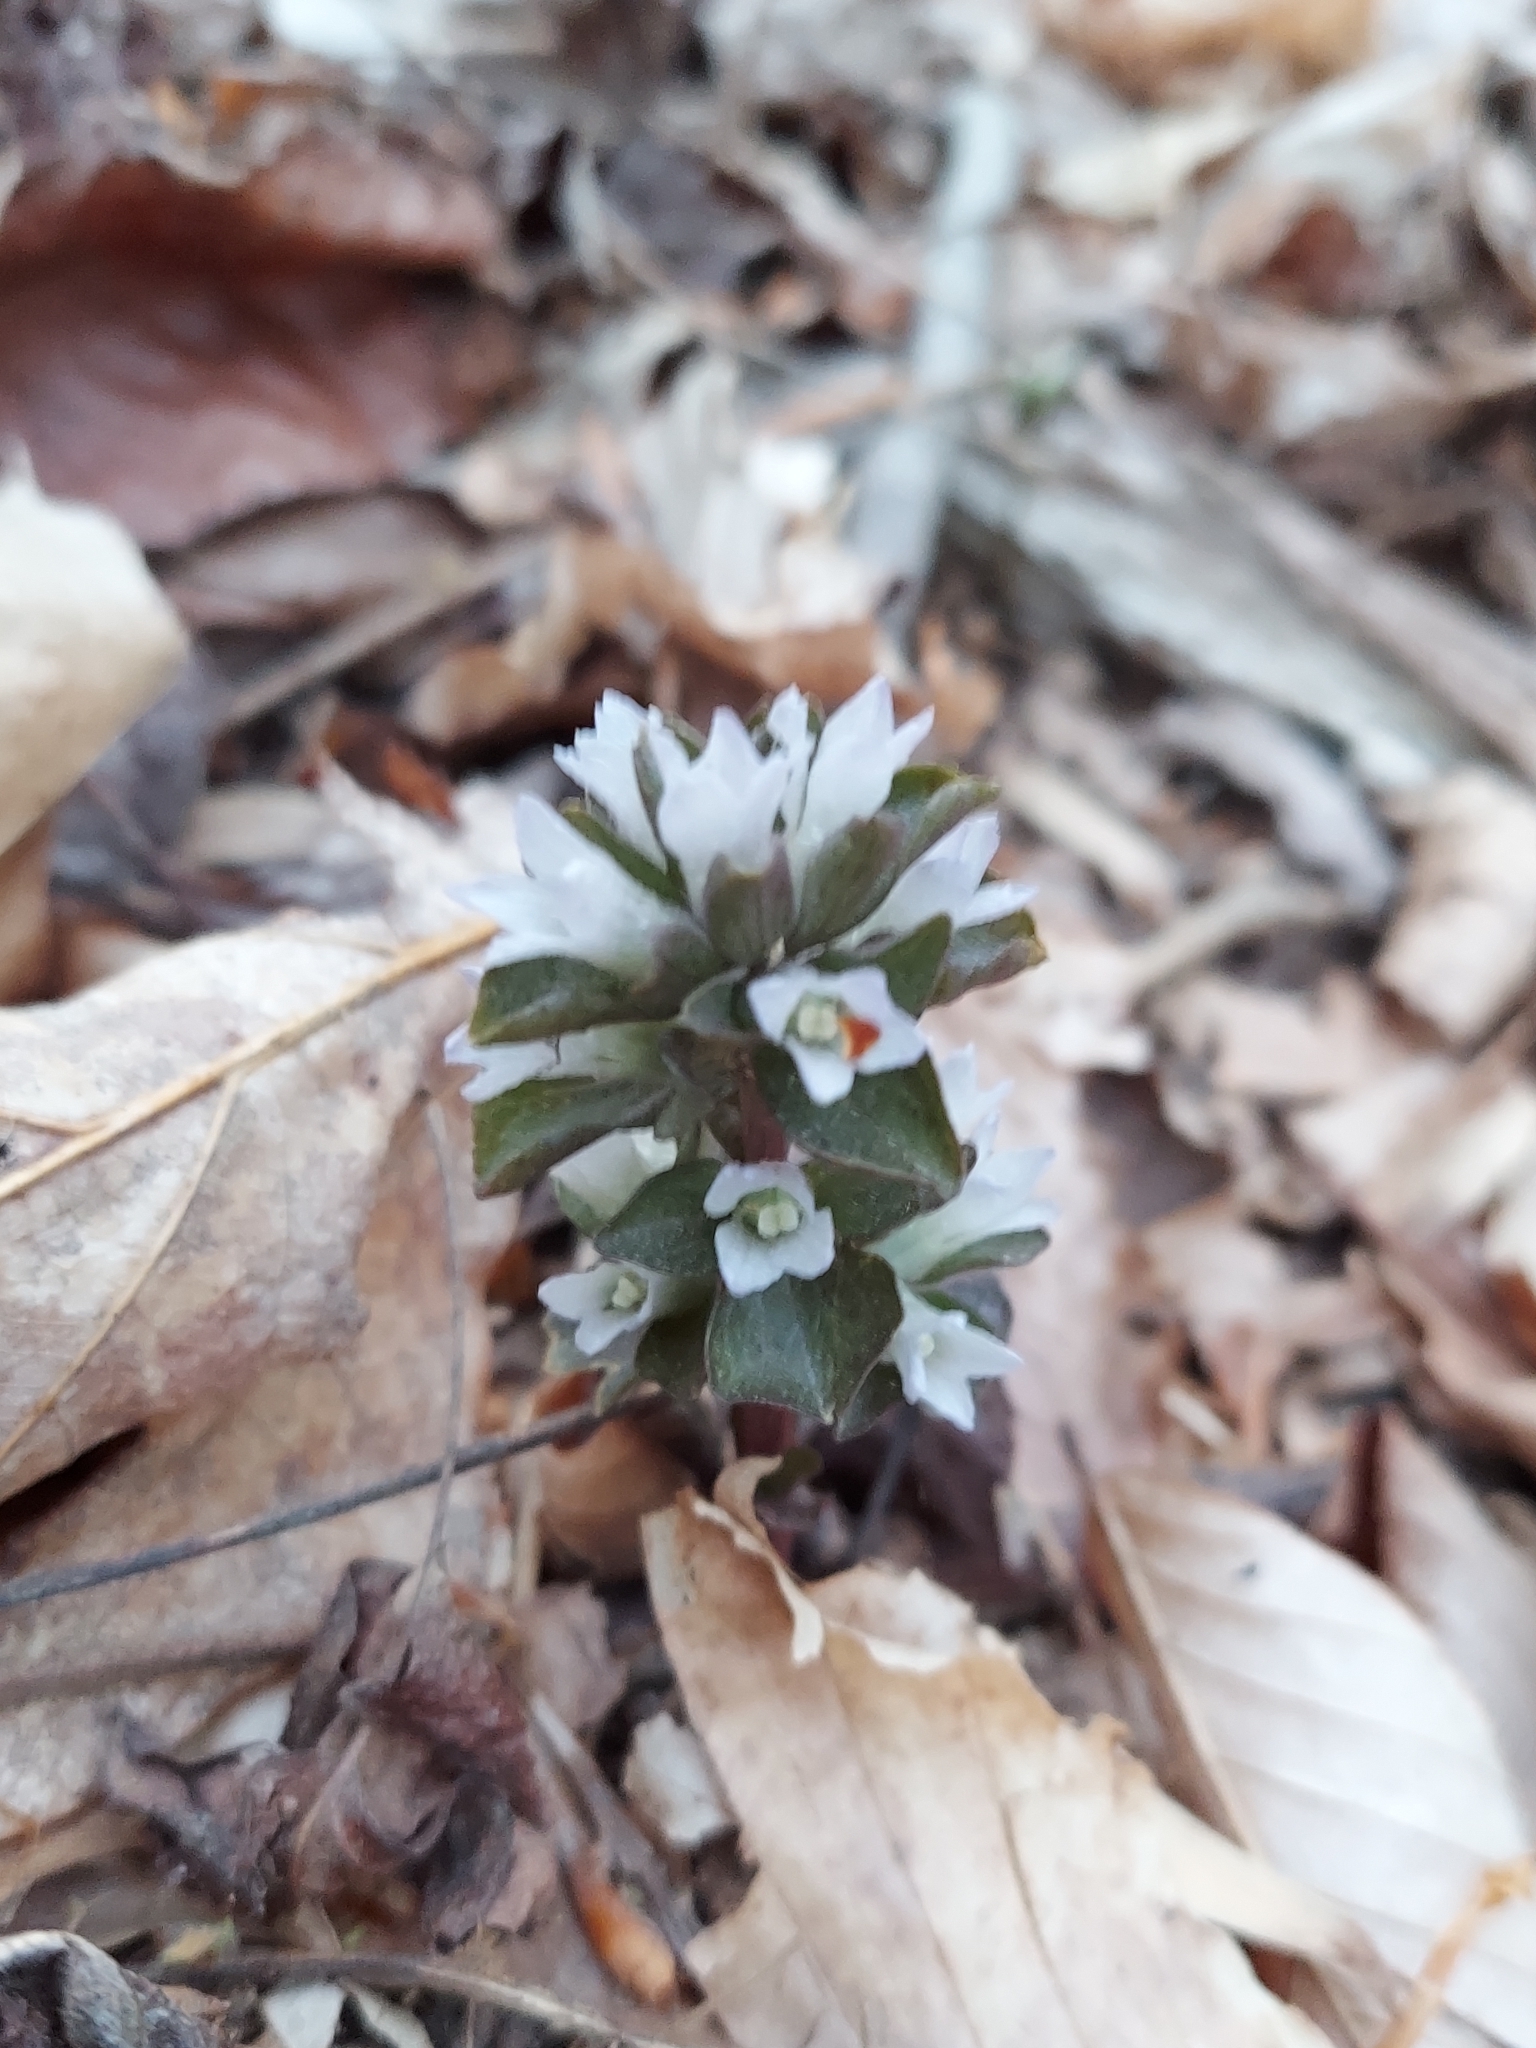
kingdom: Plantae
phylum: Tracheophyta
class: Magnoliopsida
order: Gentianales
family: Gentianaceae
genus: Obolaria
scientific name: Obolaria virginica
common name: Pennywort
